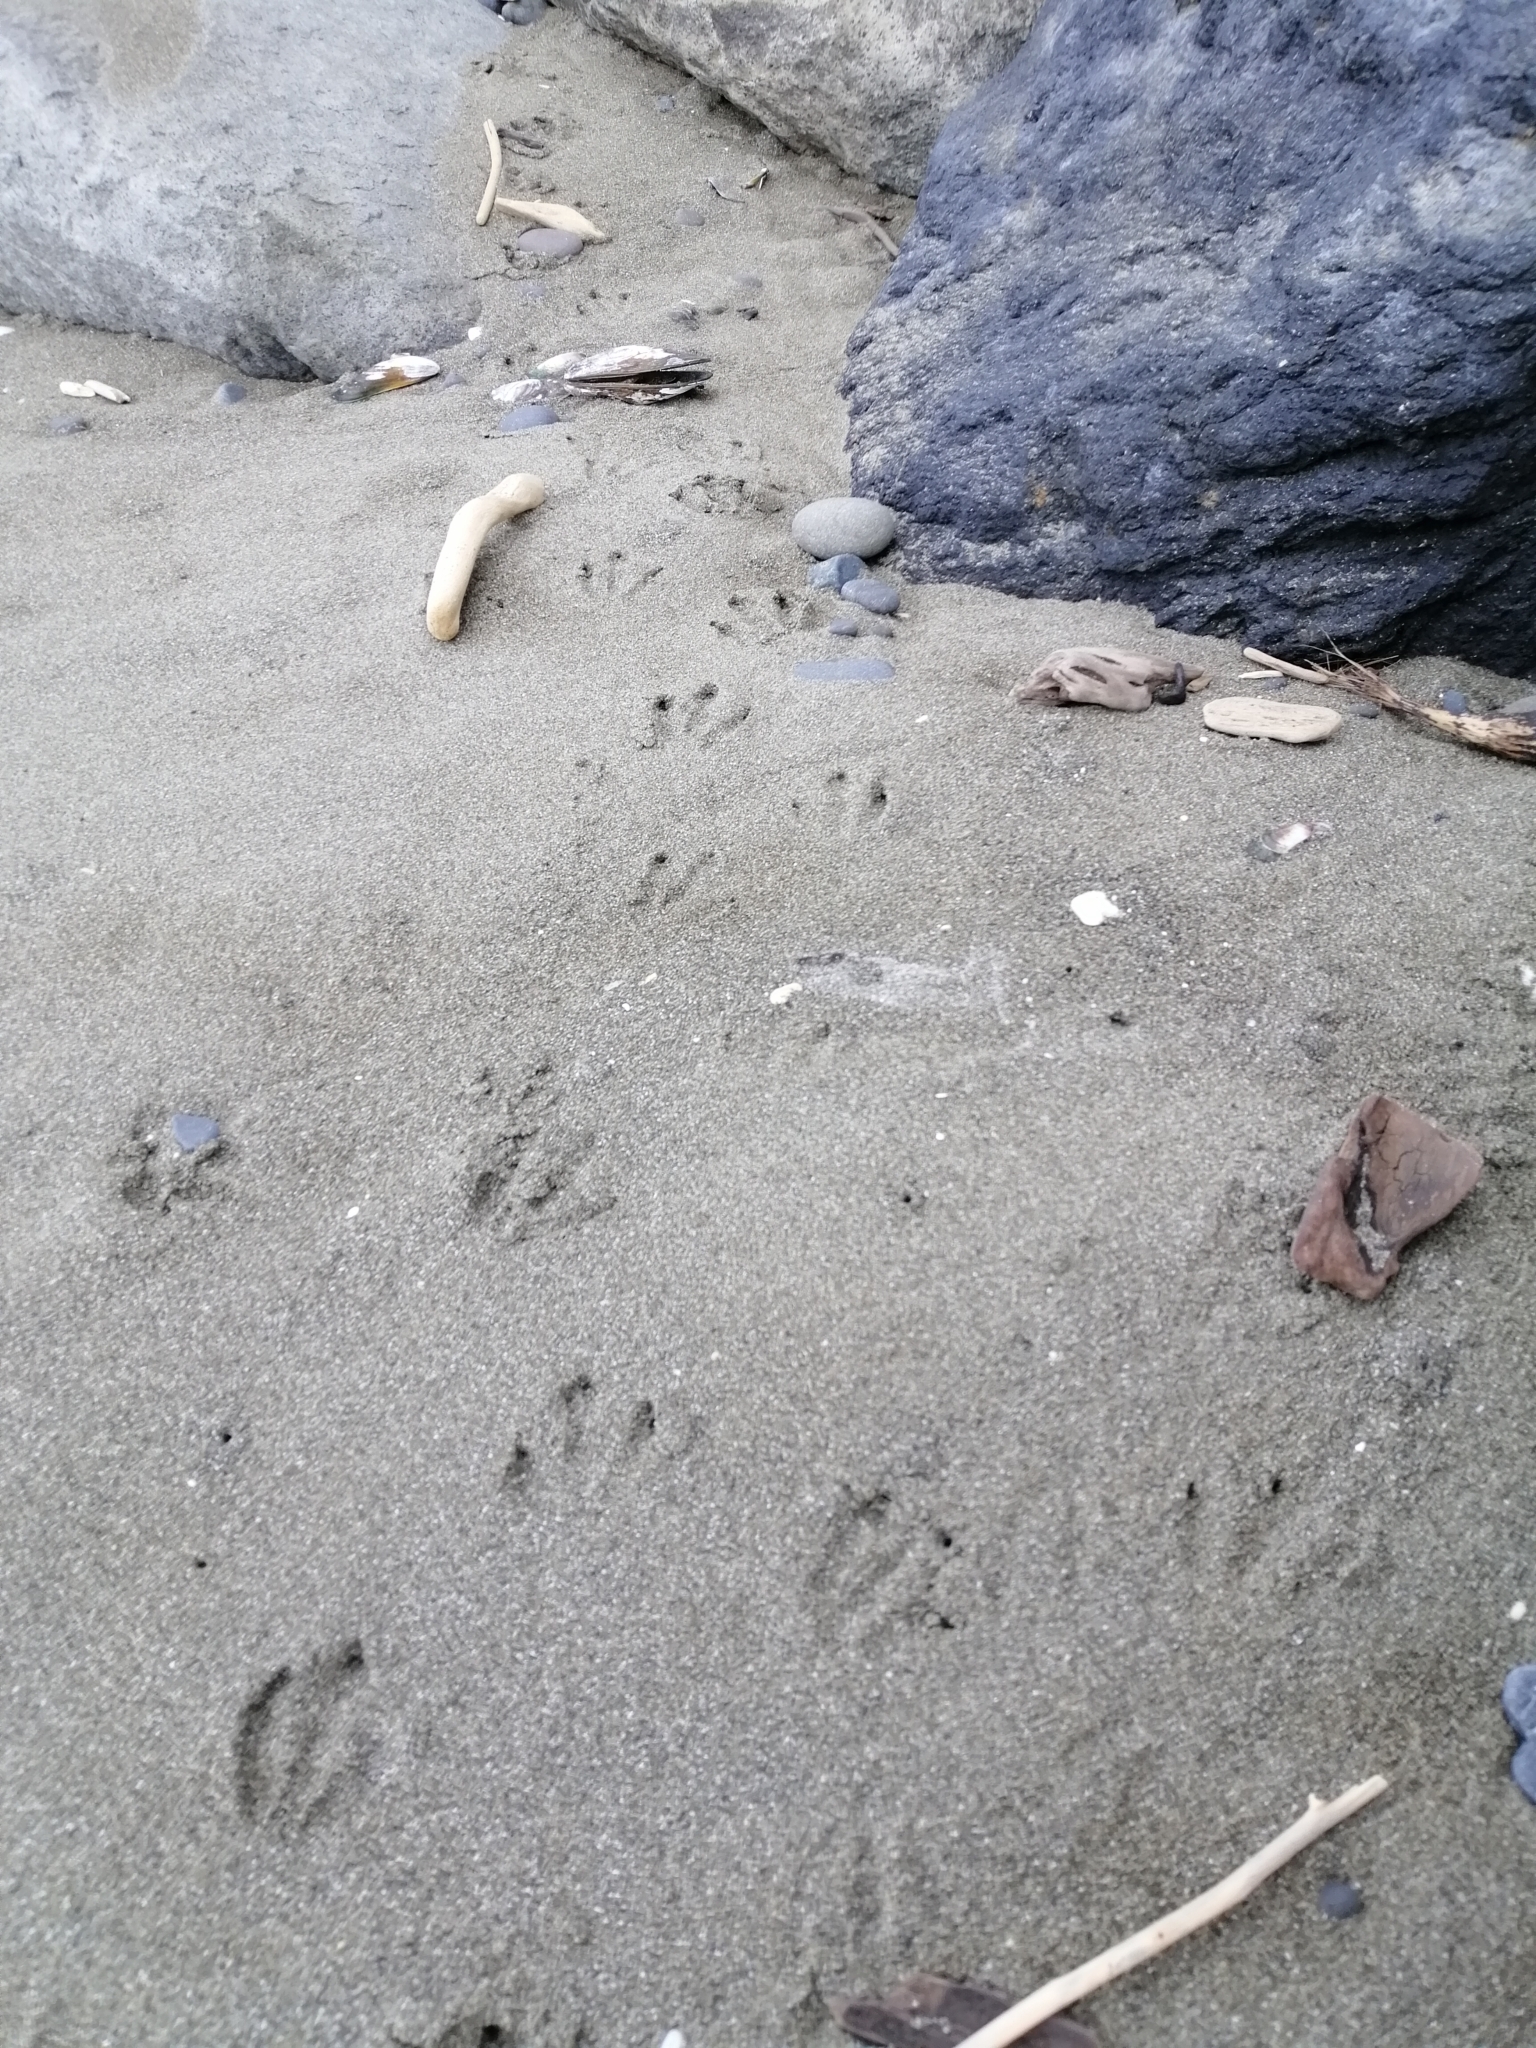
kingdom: Animalia
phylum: Chordata
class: Aves
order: Sphenisciformes
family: Spheniscidae
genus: Eudyptula
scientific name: Eudyptula minor
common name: Little penguin
